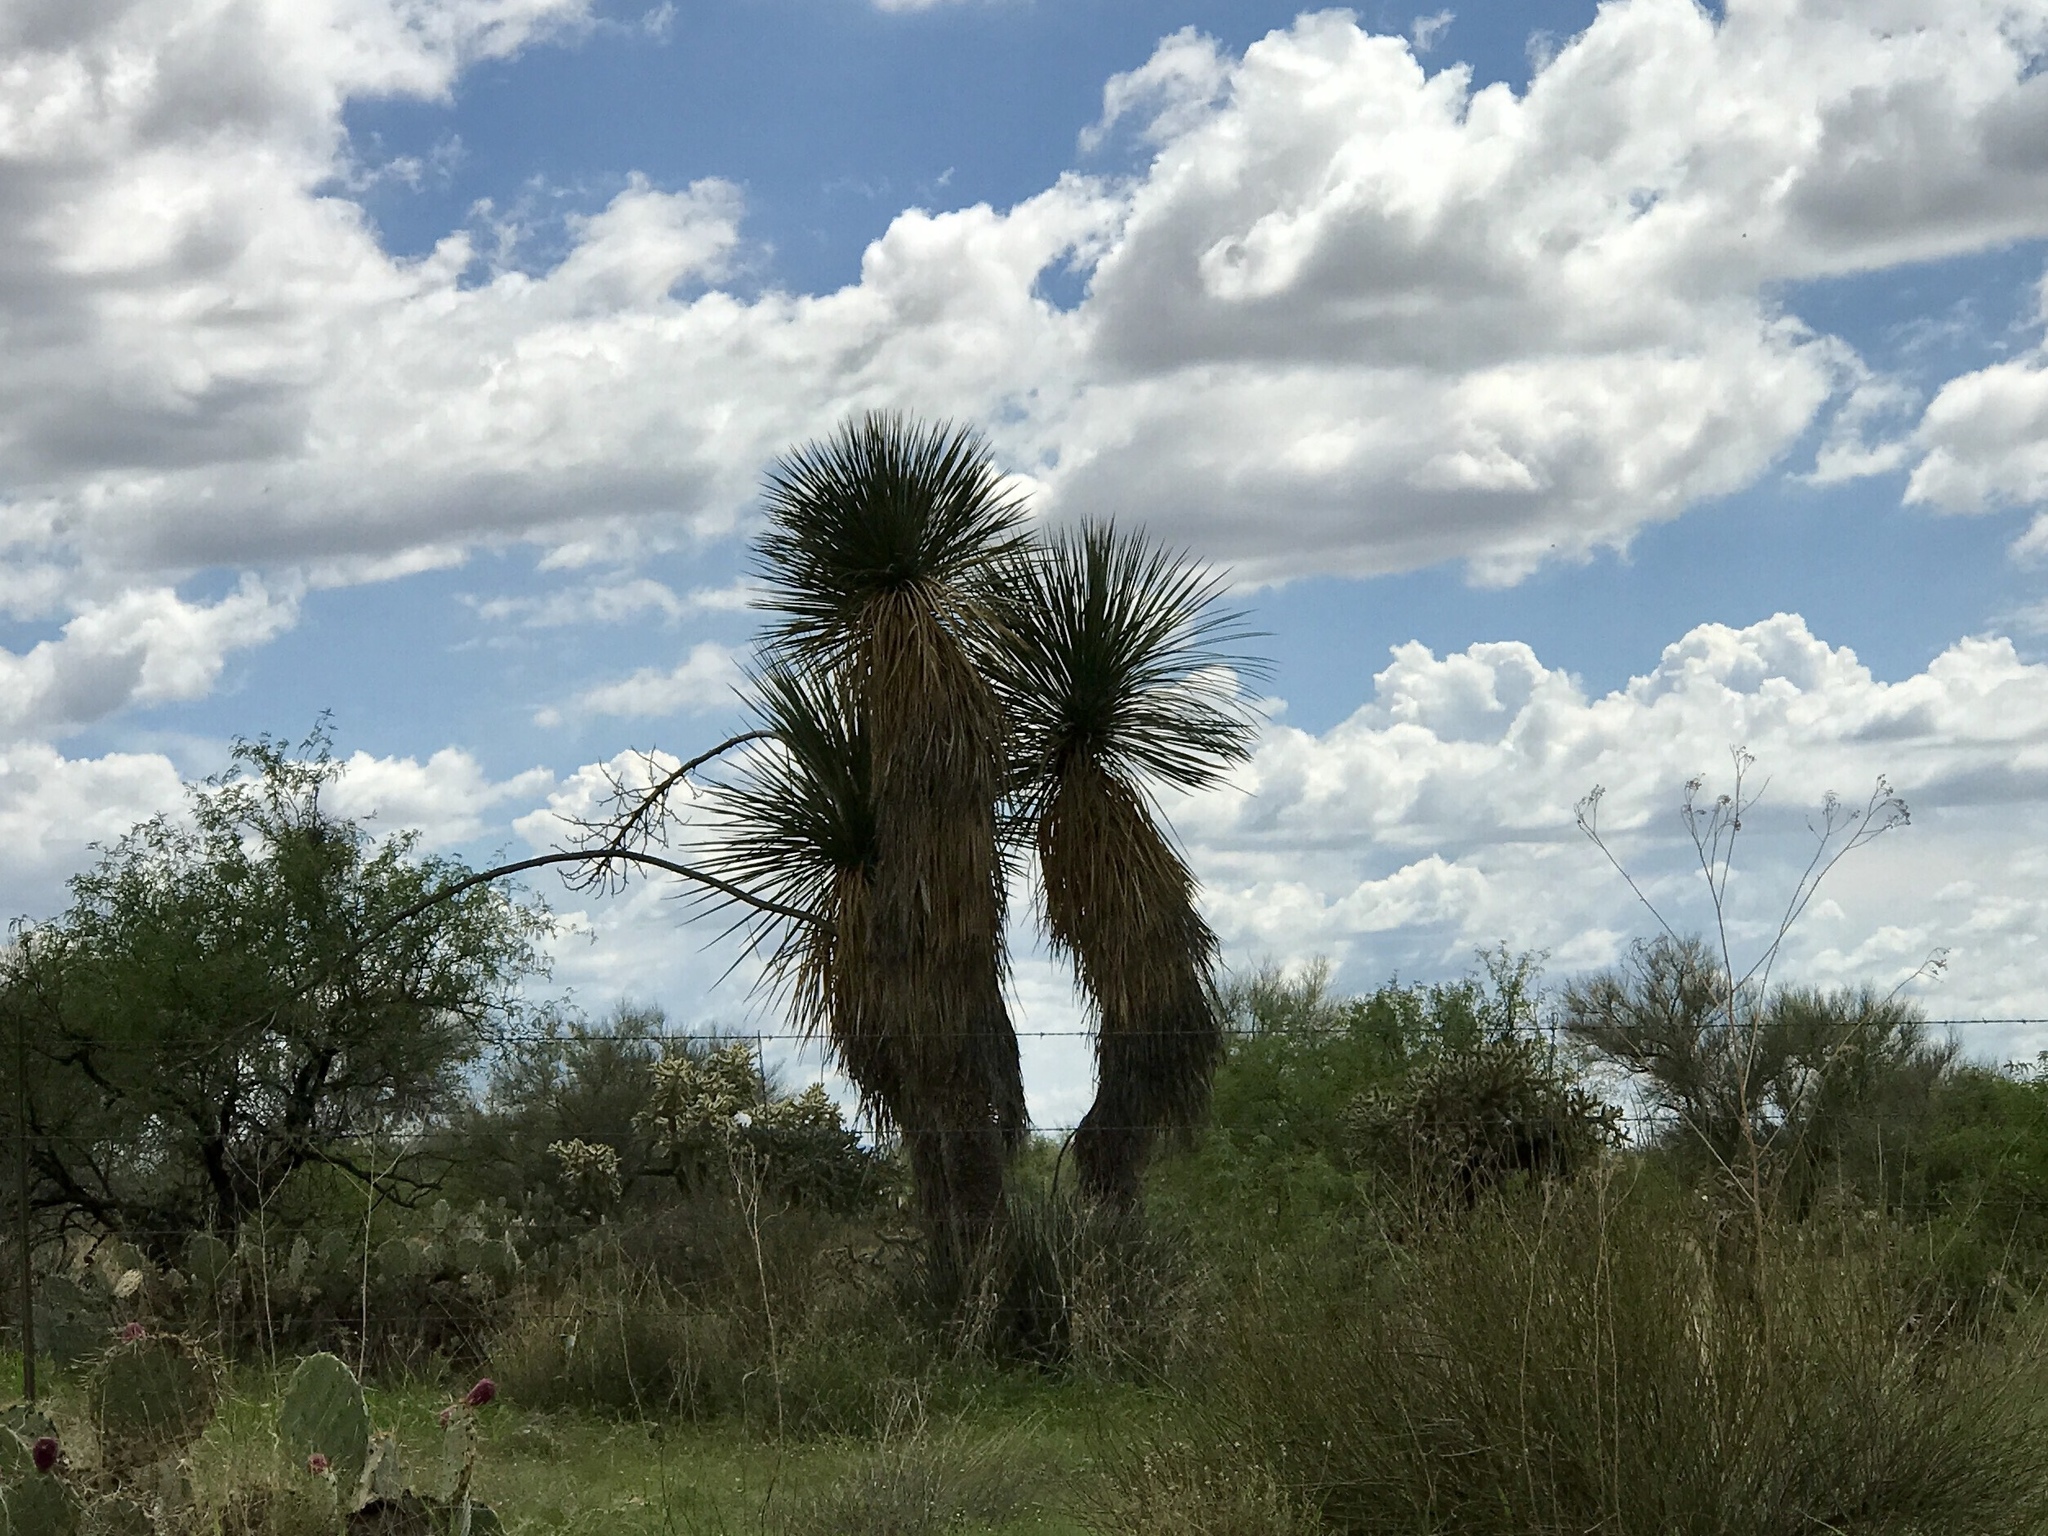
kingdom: Plantae
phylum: Tracheophyta
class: Liliopsida
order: Asparagales
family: Asparagaceae
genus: Yucca
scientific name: Yucca elata
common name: Palmella
